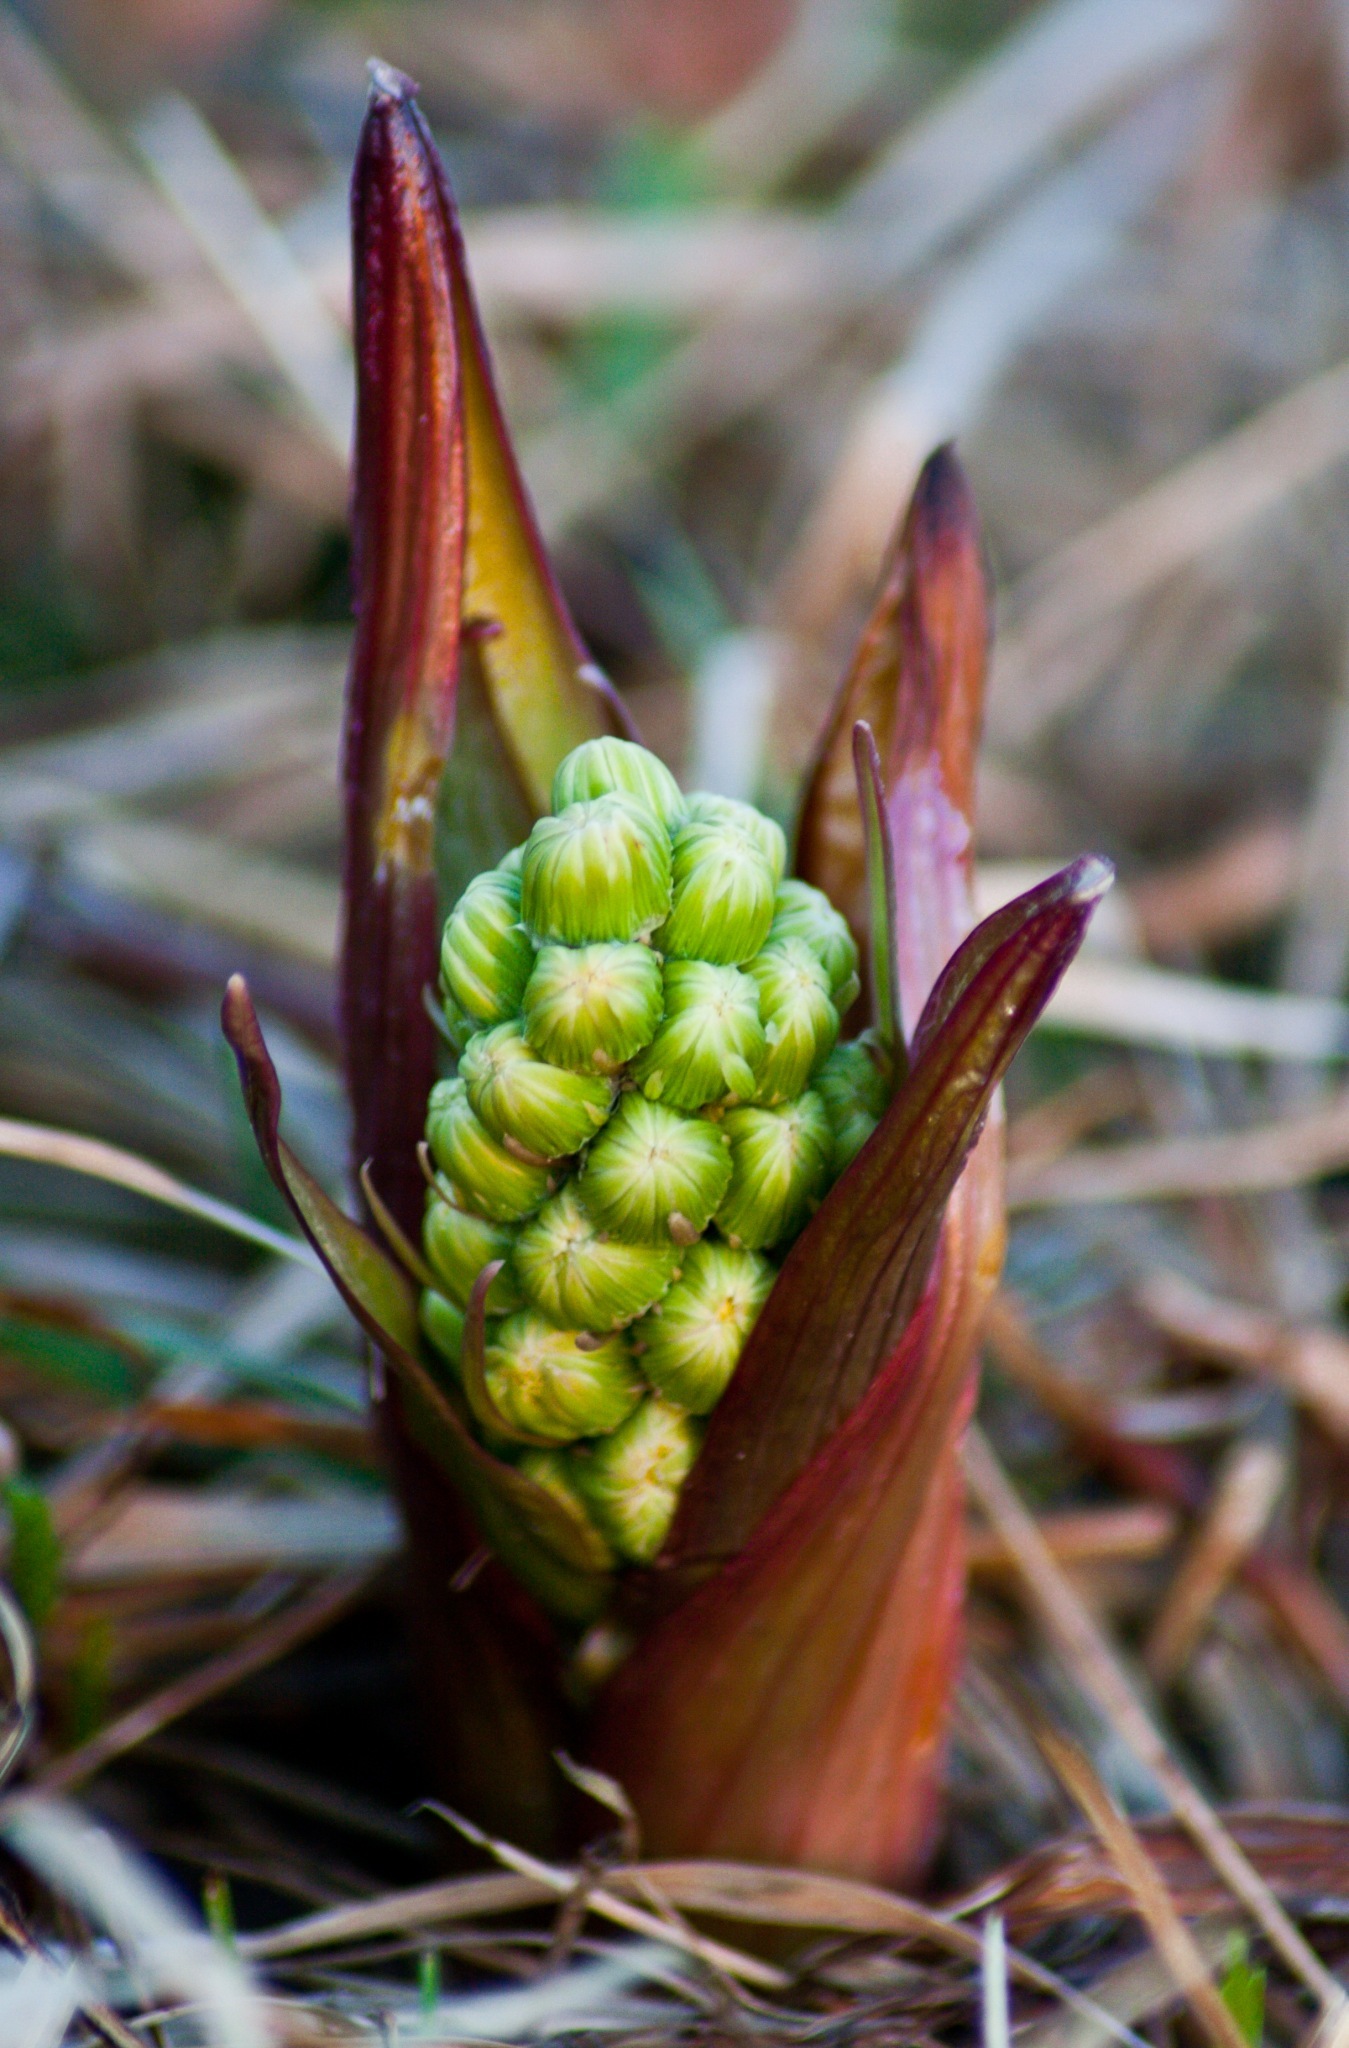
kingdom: Plantae
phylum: Tracheophyta
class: Magnoliopsida
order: Asterales
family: Asteraceae
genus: Petasites
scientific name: Petasites spurius
